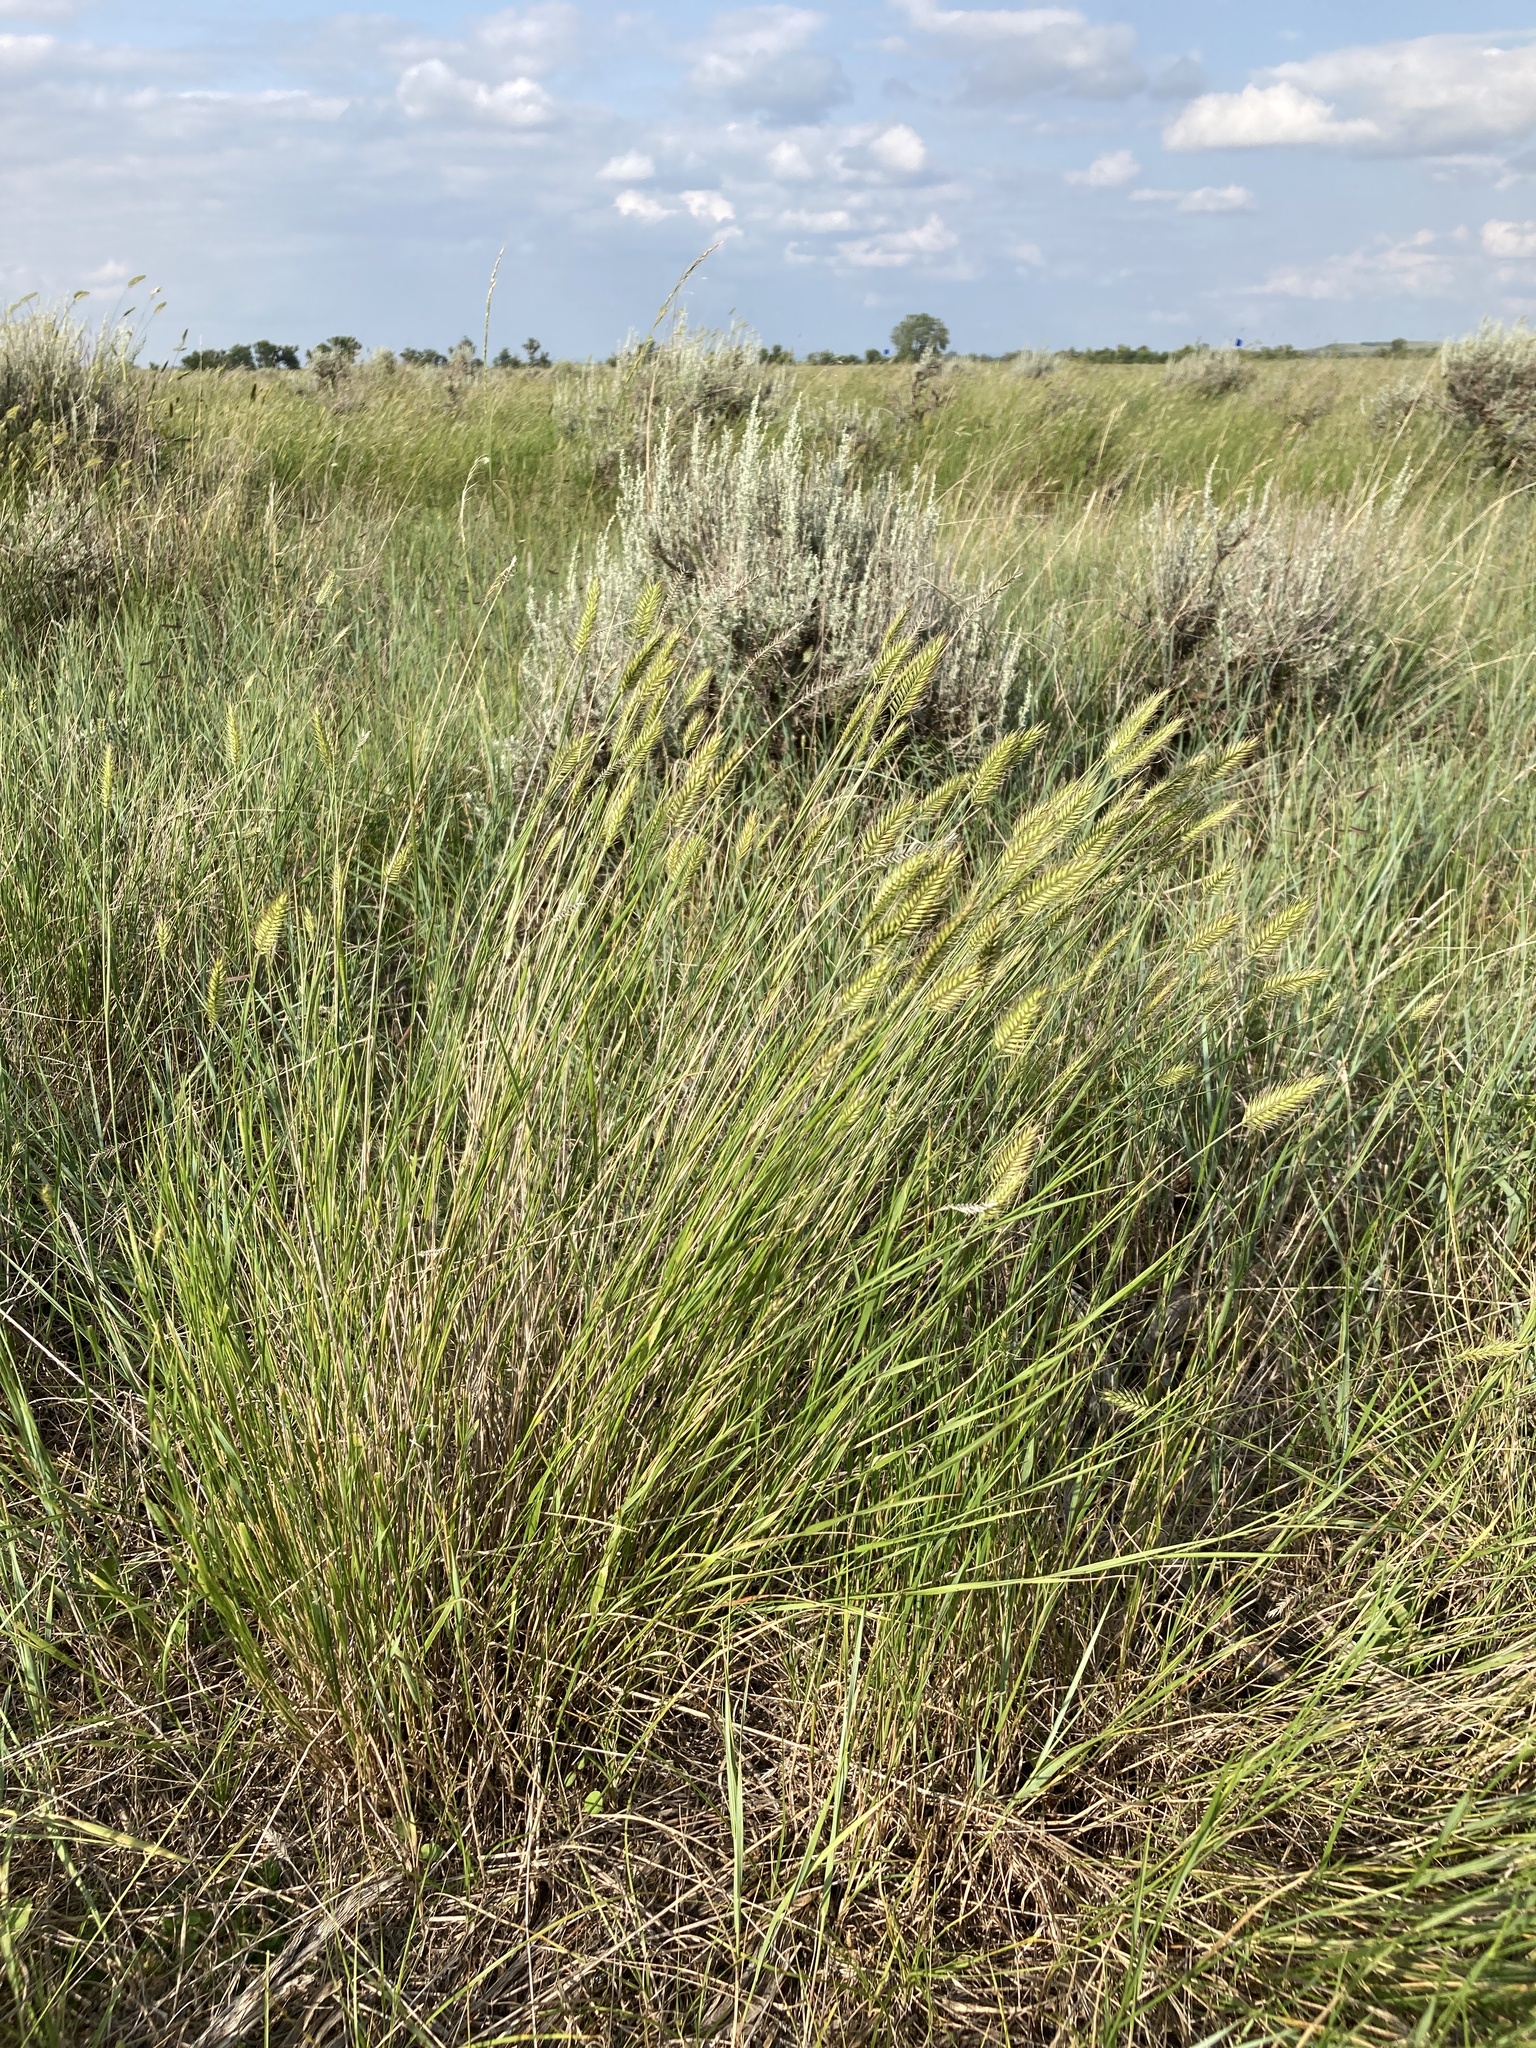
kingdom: Plantae
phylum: Tracheophyta
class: Liliopsida
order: Poales
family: Poaceae
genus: Agropyron
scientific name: Agropyron cristatum
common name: Crested wheatgrass
